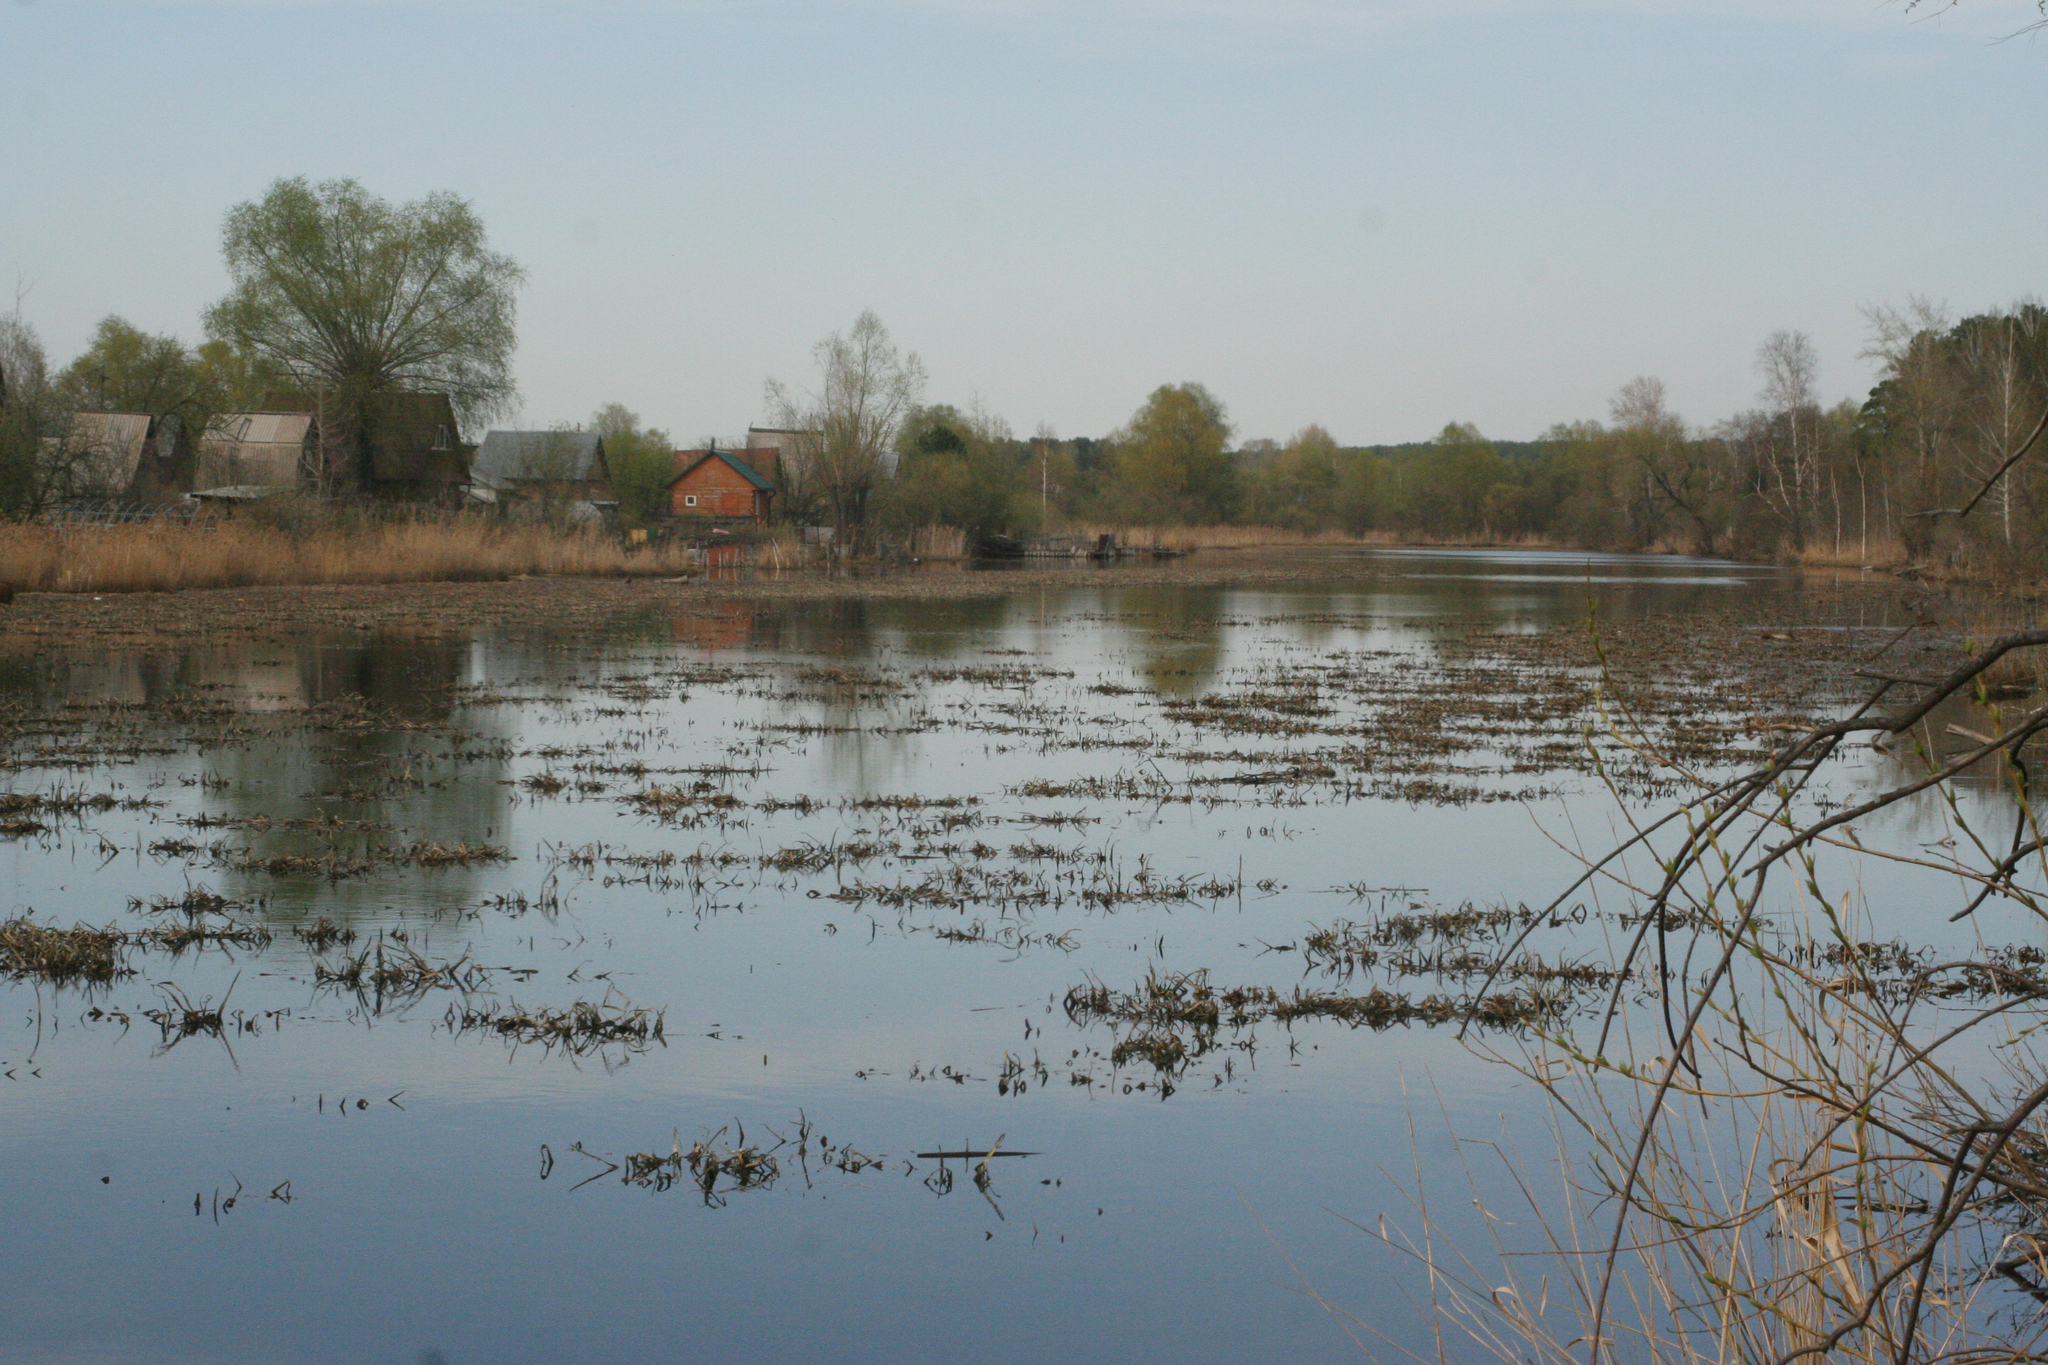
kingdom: Plantae
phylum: Tracheophyta
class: Liliopsida
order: Alismatales
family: Hydrocharitaceae
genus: Stratiotes
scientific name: Stratiotes aloides
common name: Water-soldier
